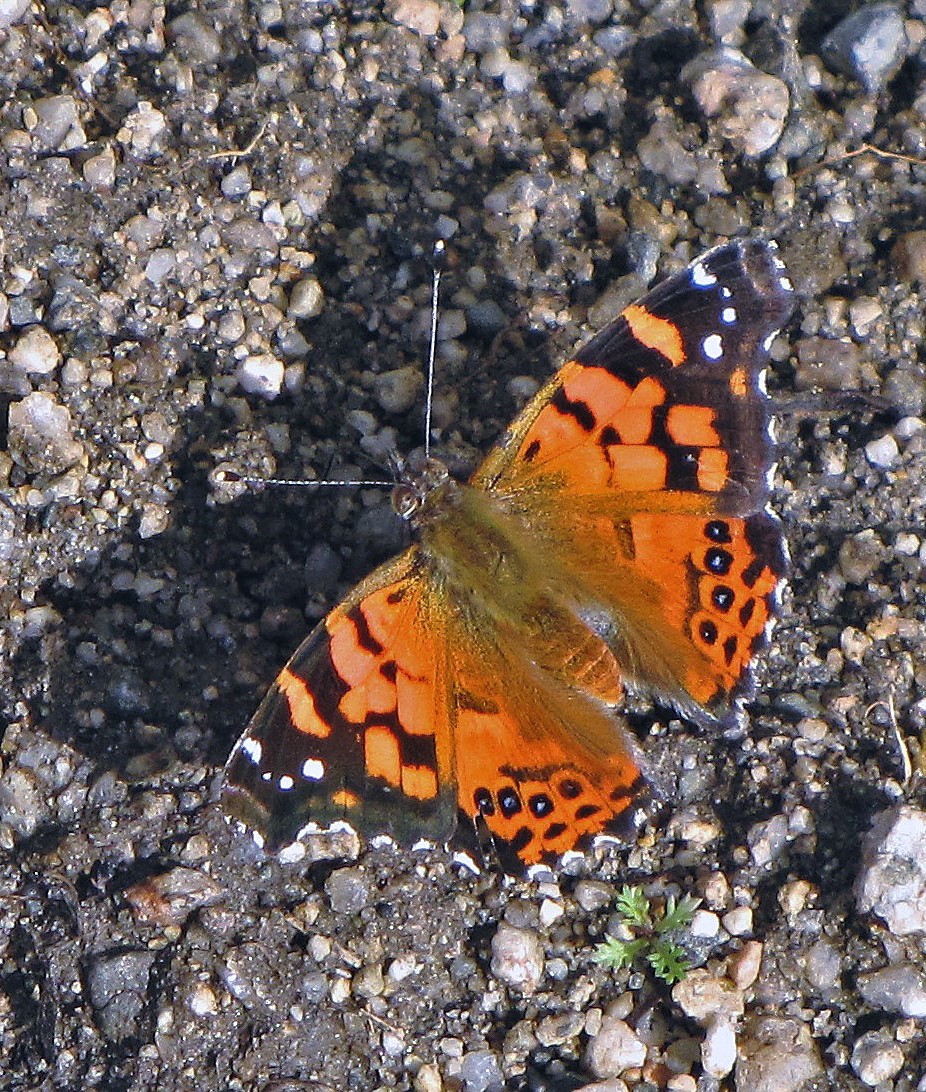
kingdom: Animalia
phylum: Arthropoda
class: Insecta
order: Lepidoptera
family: Nymphalidae
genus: Vanessa
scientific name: Vanessa carye
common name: Subtropical lady
